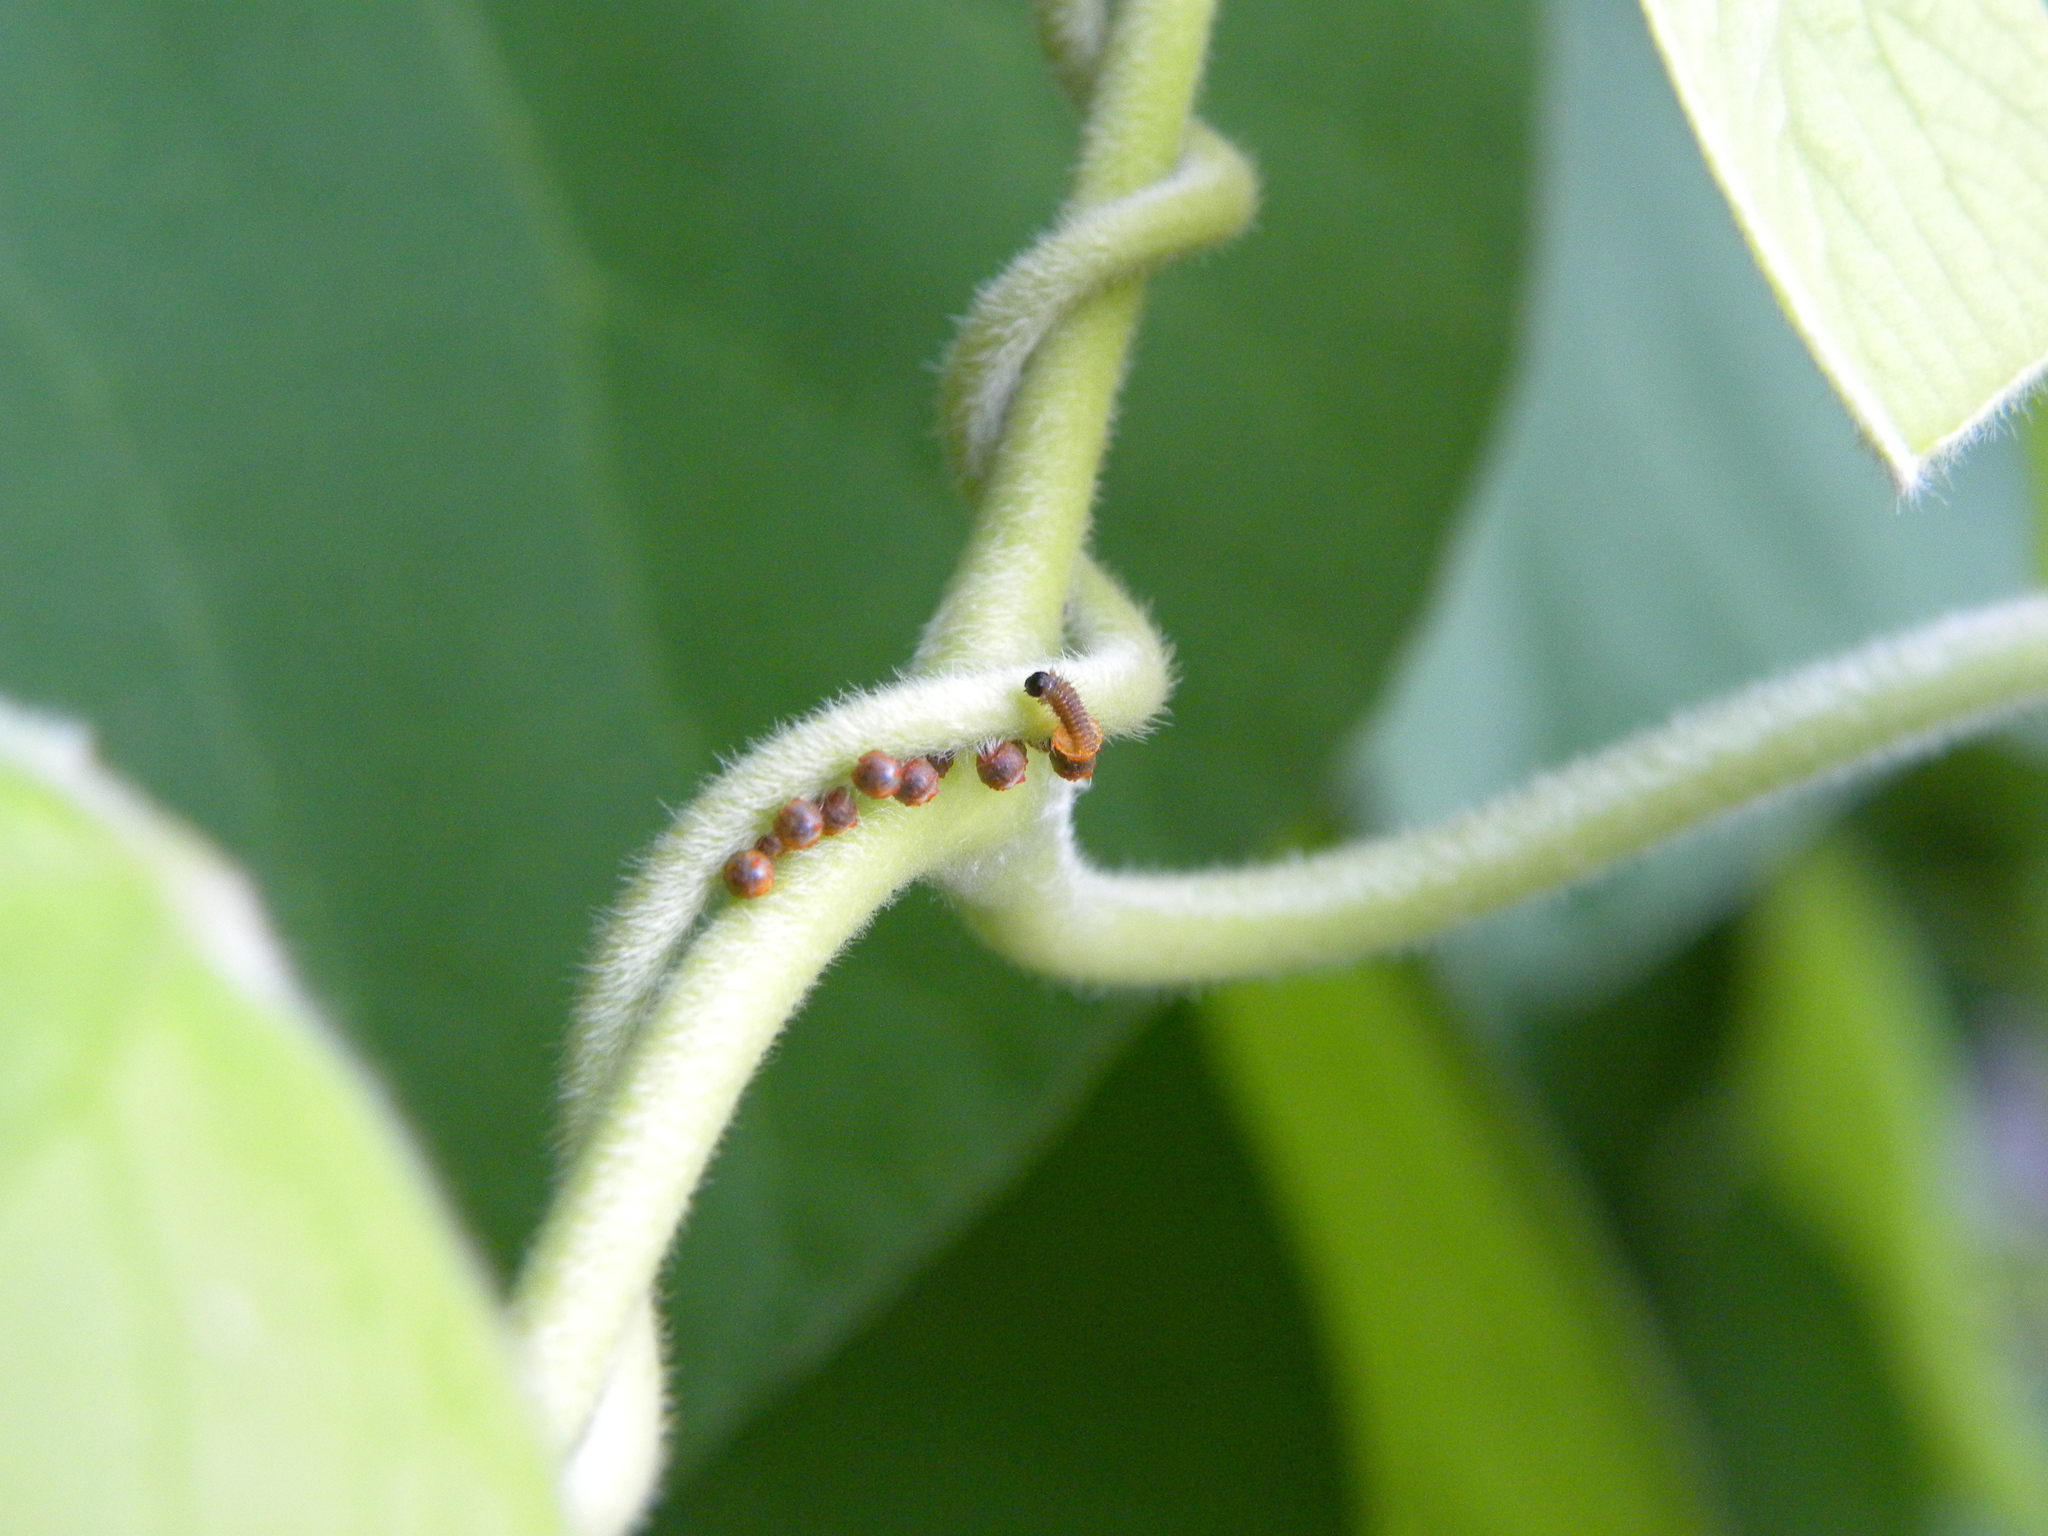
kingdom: Animalia
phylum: Arthropoda
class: Insecta
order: Lepidoptera
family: Papilionidae
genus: Battus
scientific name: Battus philenor
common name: Pipevine swallowtail
